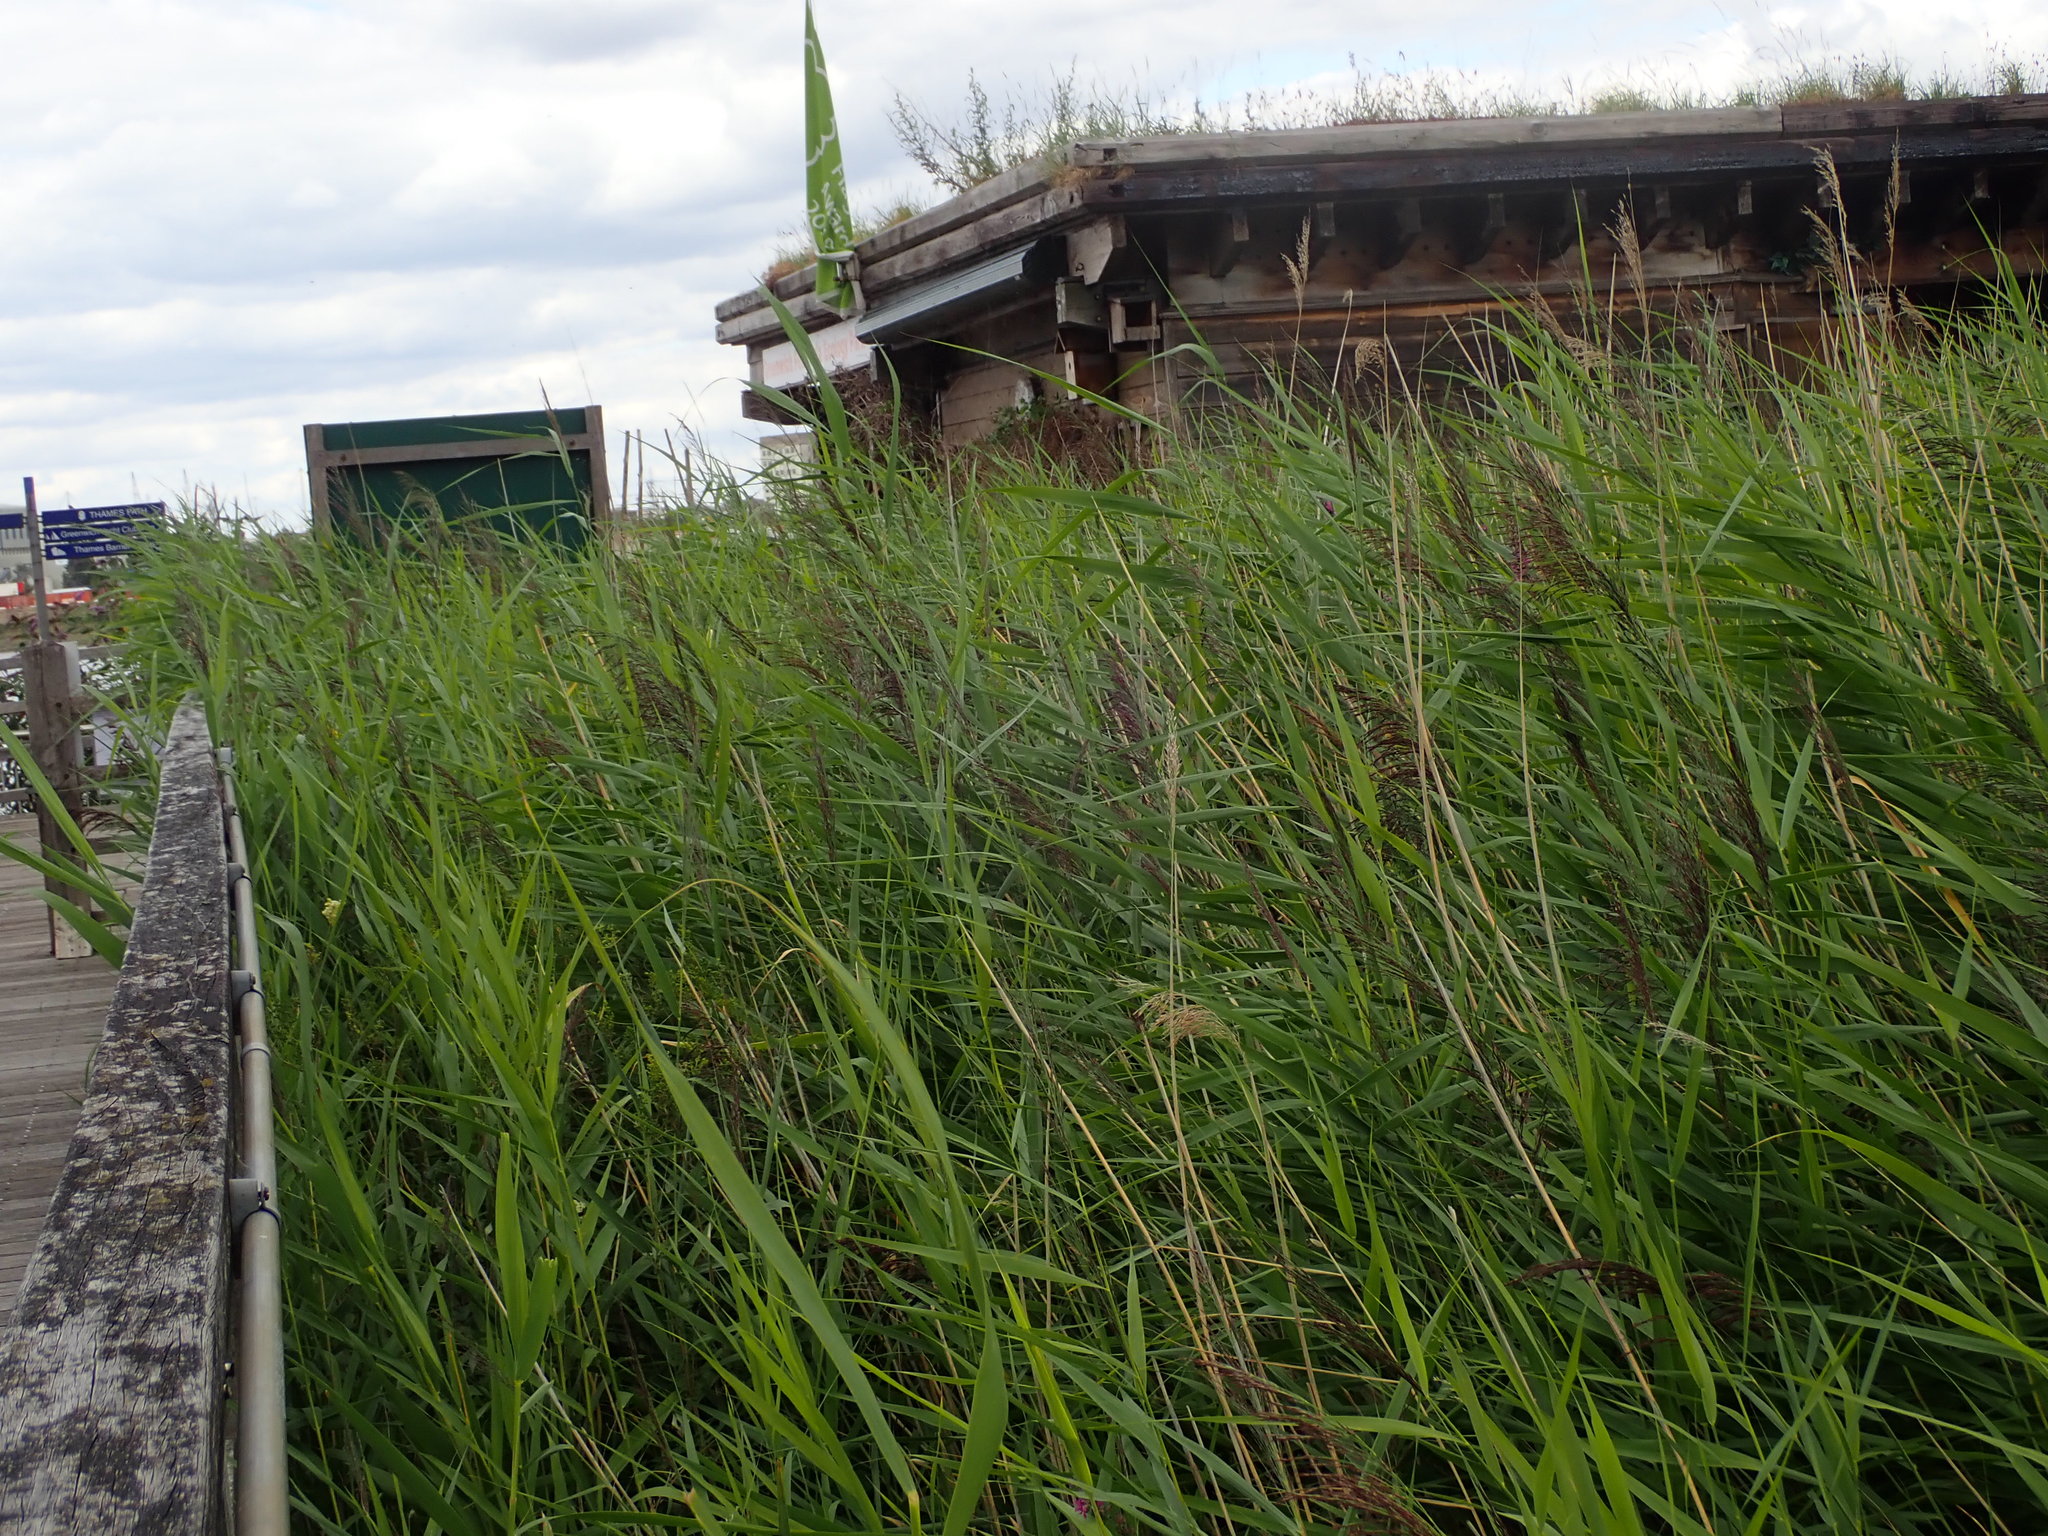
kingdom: Plantae
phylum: Tracheophyta
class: Liliopsida
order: Poales
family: Poaceae
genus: Phragmites
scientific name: Phragmites australis
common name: Common reed
